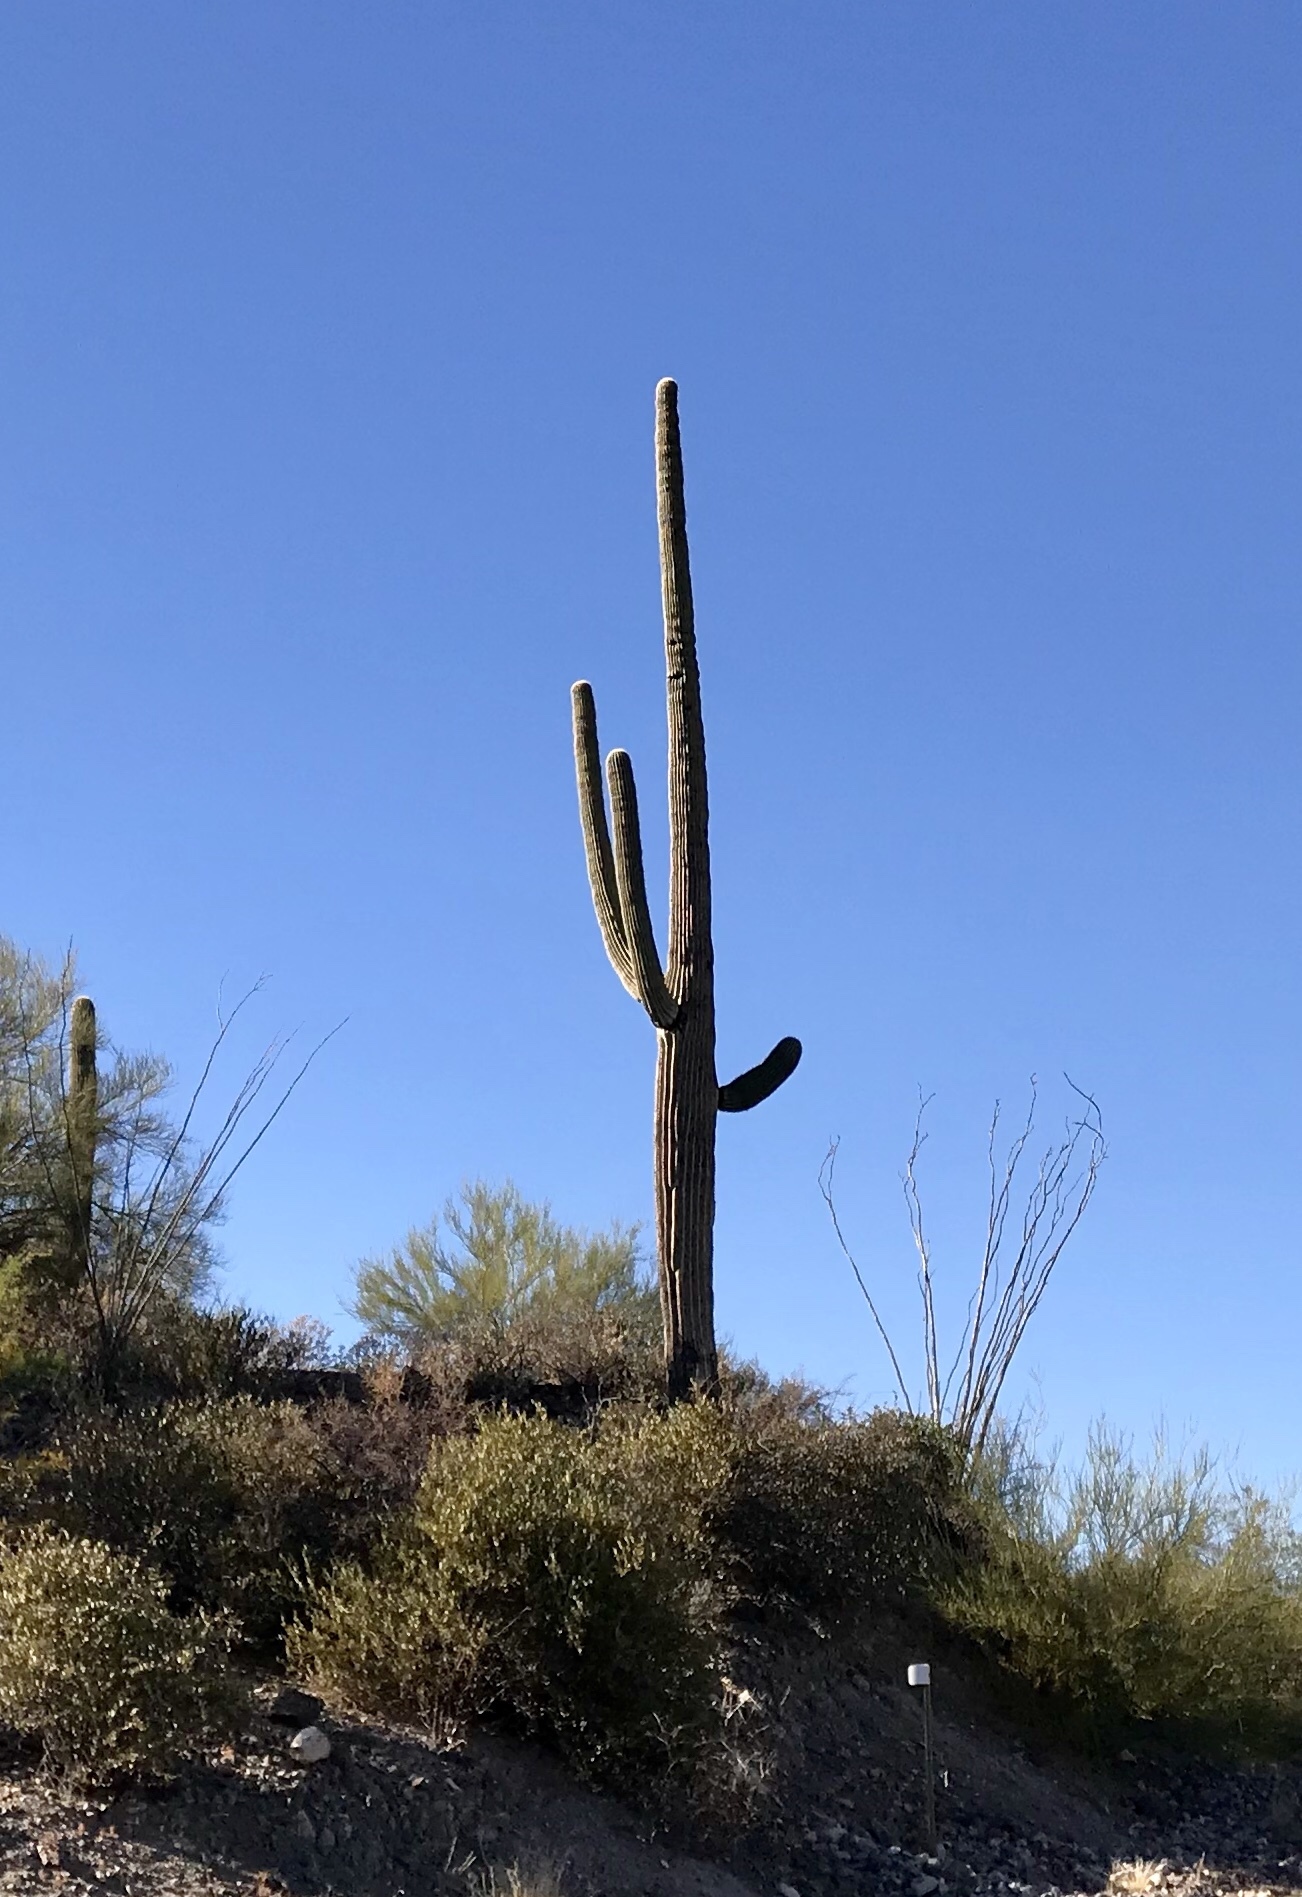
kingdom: Plantae
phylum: Tracheophyta
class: Magnoliopsida
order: Caryophyllales
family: Cactaceae
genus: Carnegiea
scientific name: Carnegiea gigantea
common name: Saguaro
